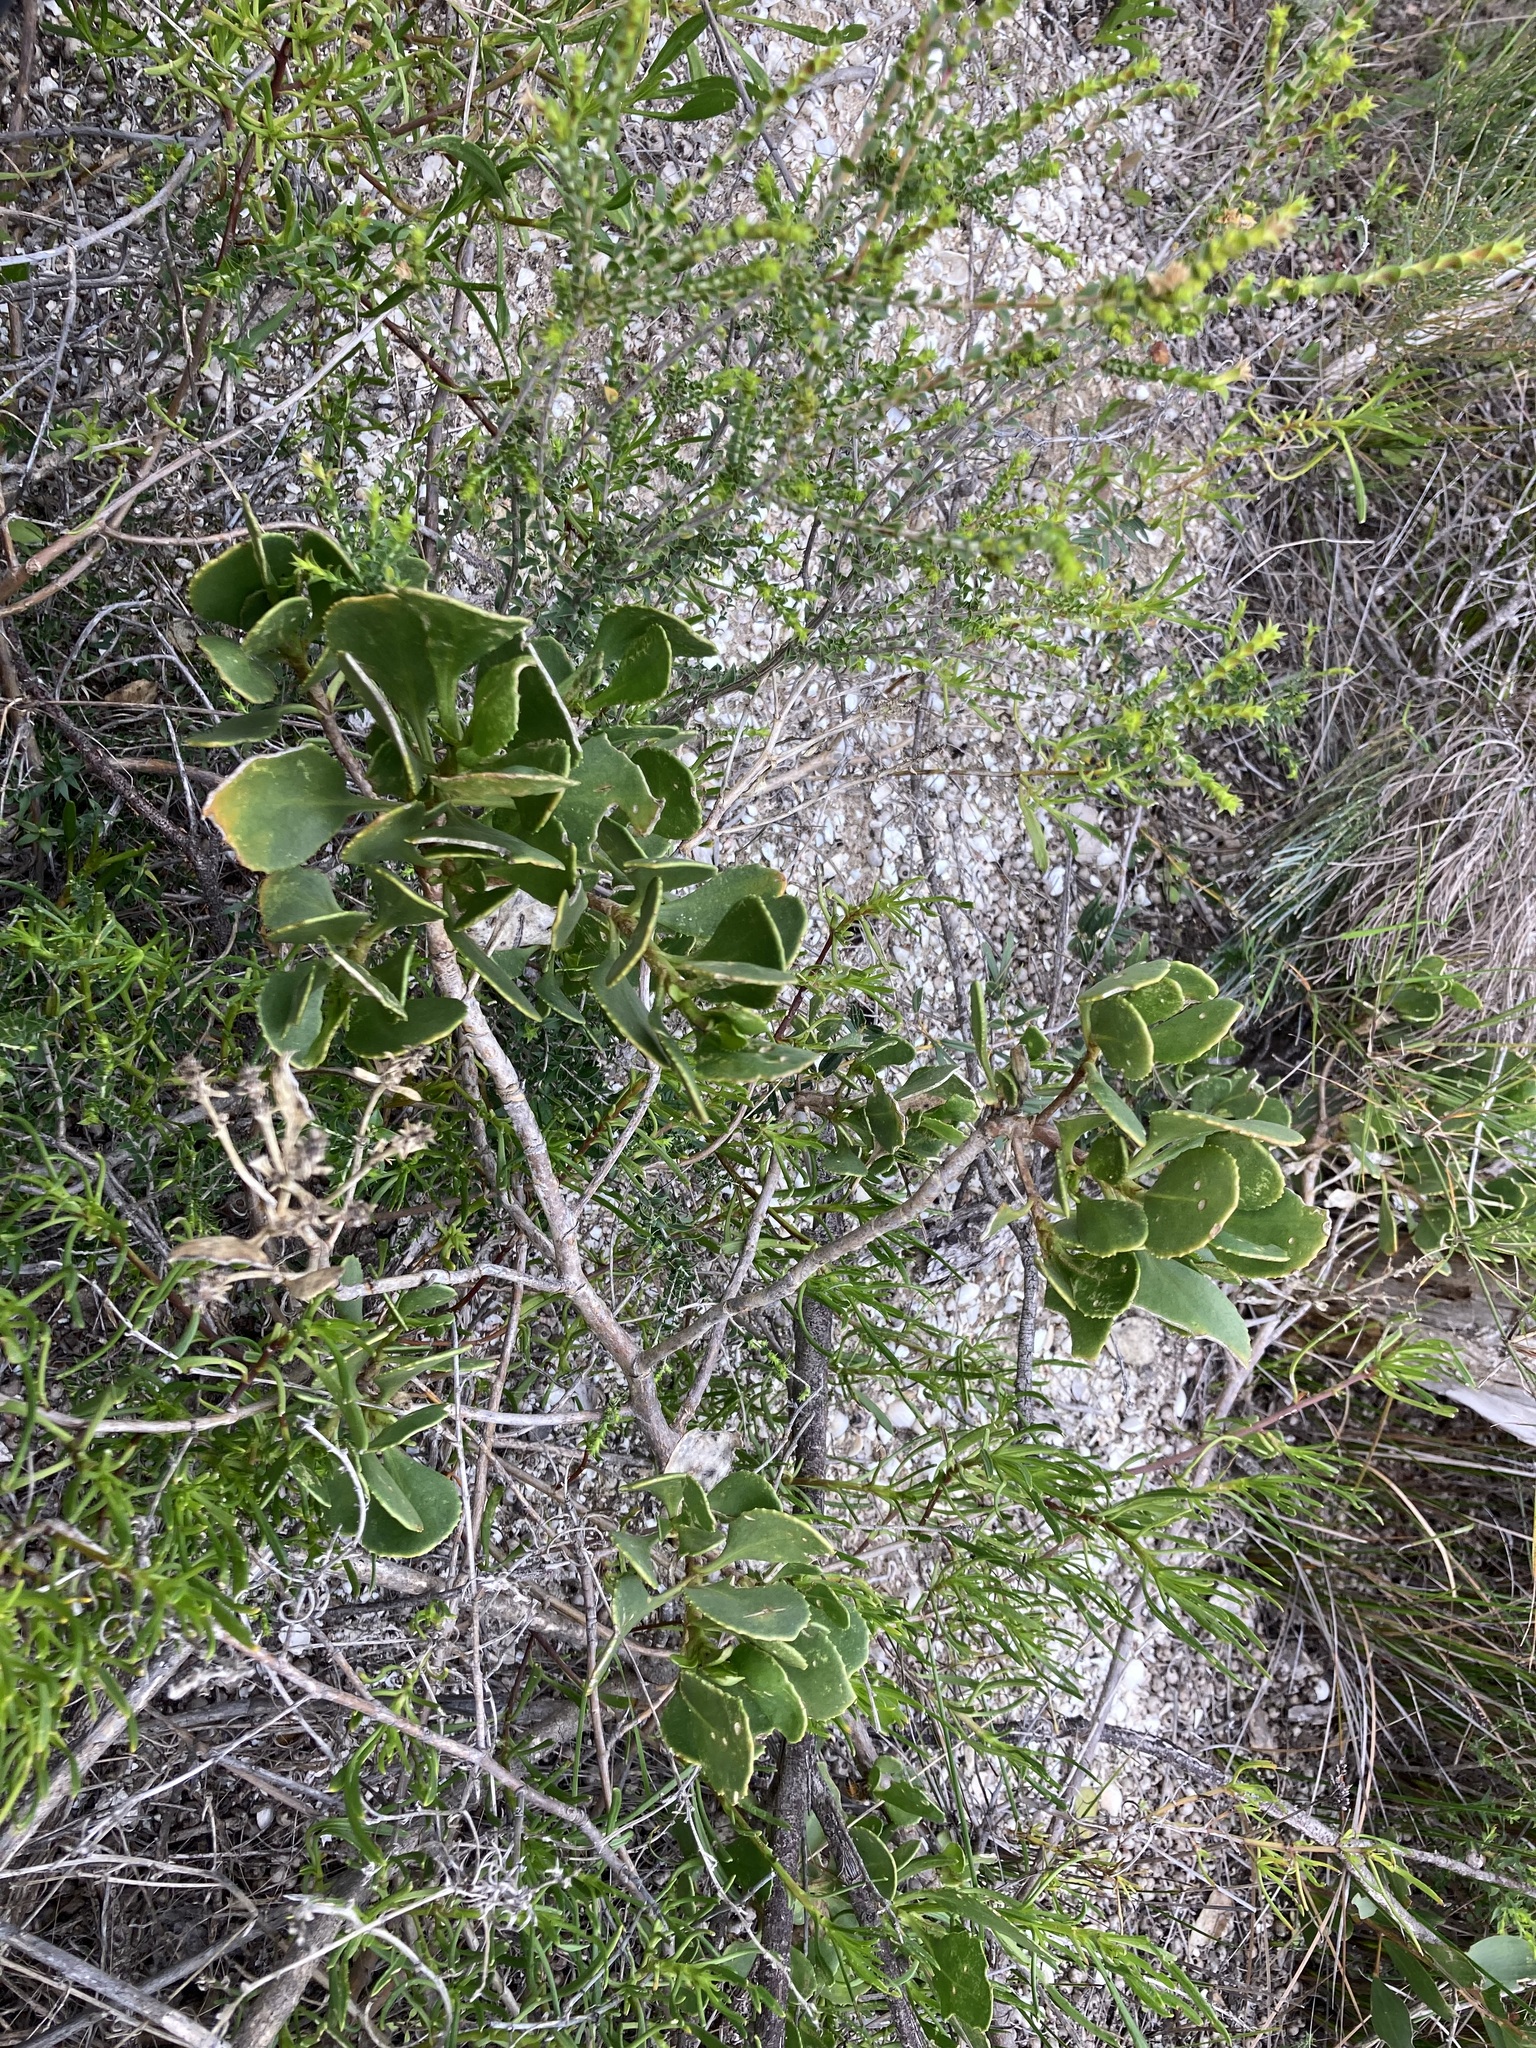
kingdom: Plantae
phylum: Tracheophyta
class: Magnoliopsida
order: Asterales
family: Goodeniaceae
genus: Scaevola
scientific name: Scaevola crassifolia
